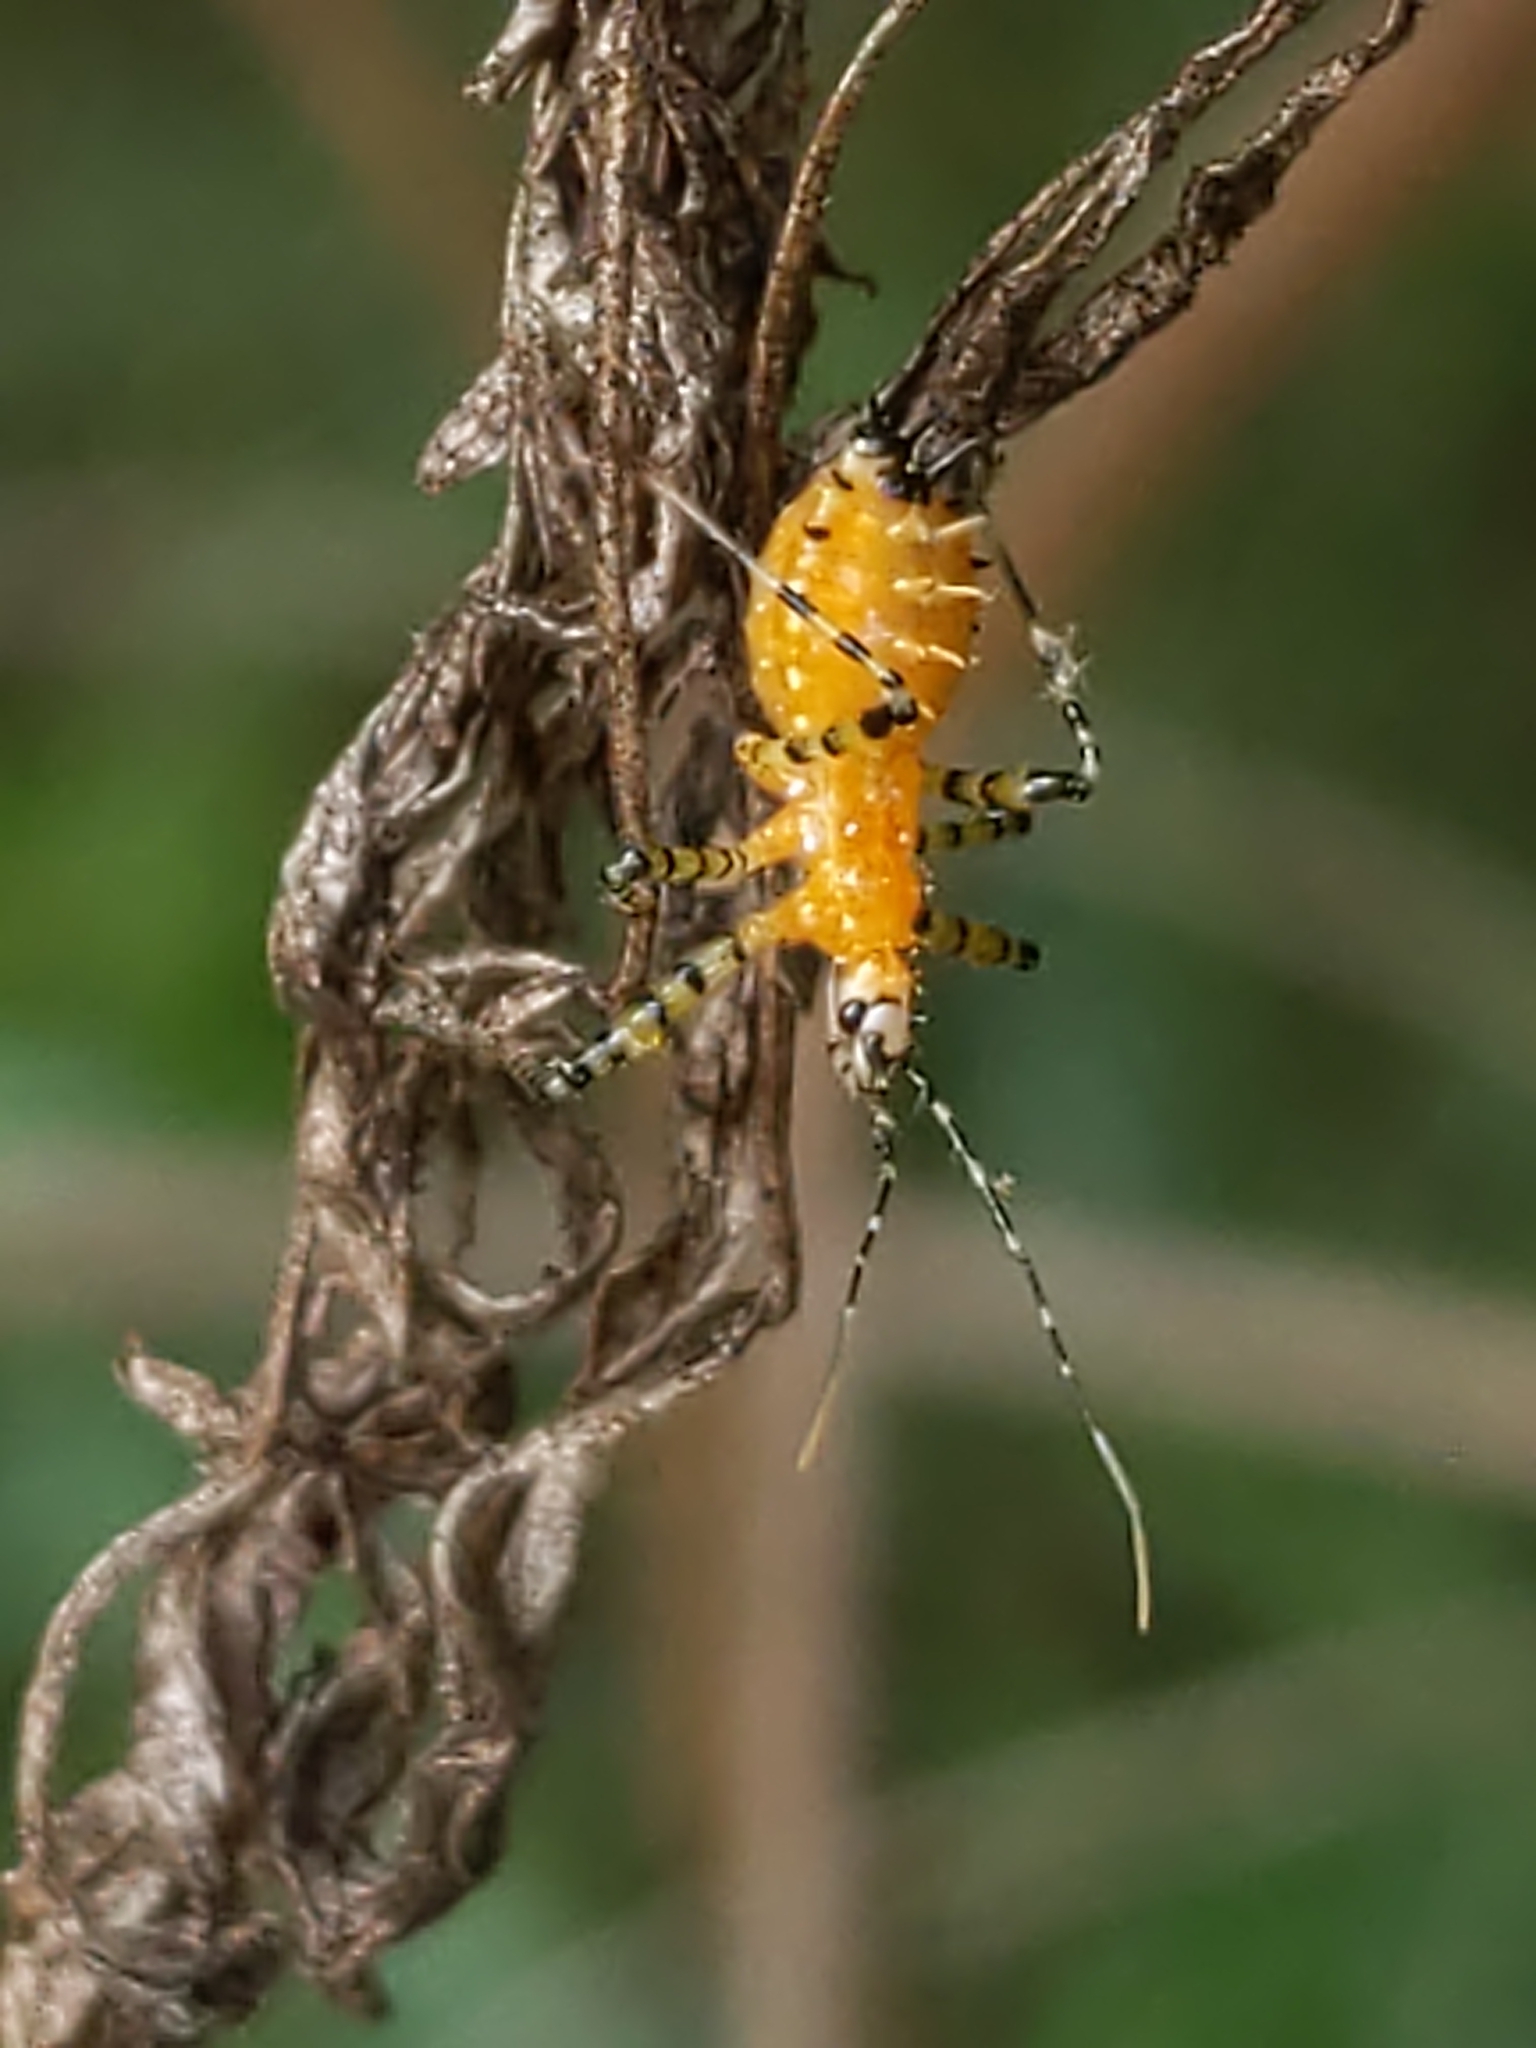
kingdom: Animalia
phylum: Arthropoda
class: Insecta
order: Hemiptera
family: Reduviidae
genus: Pselliopus
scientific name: Pselliopus barberi
